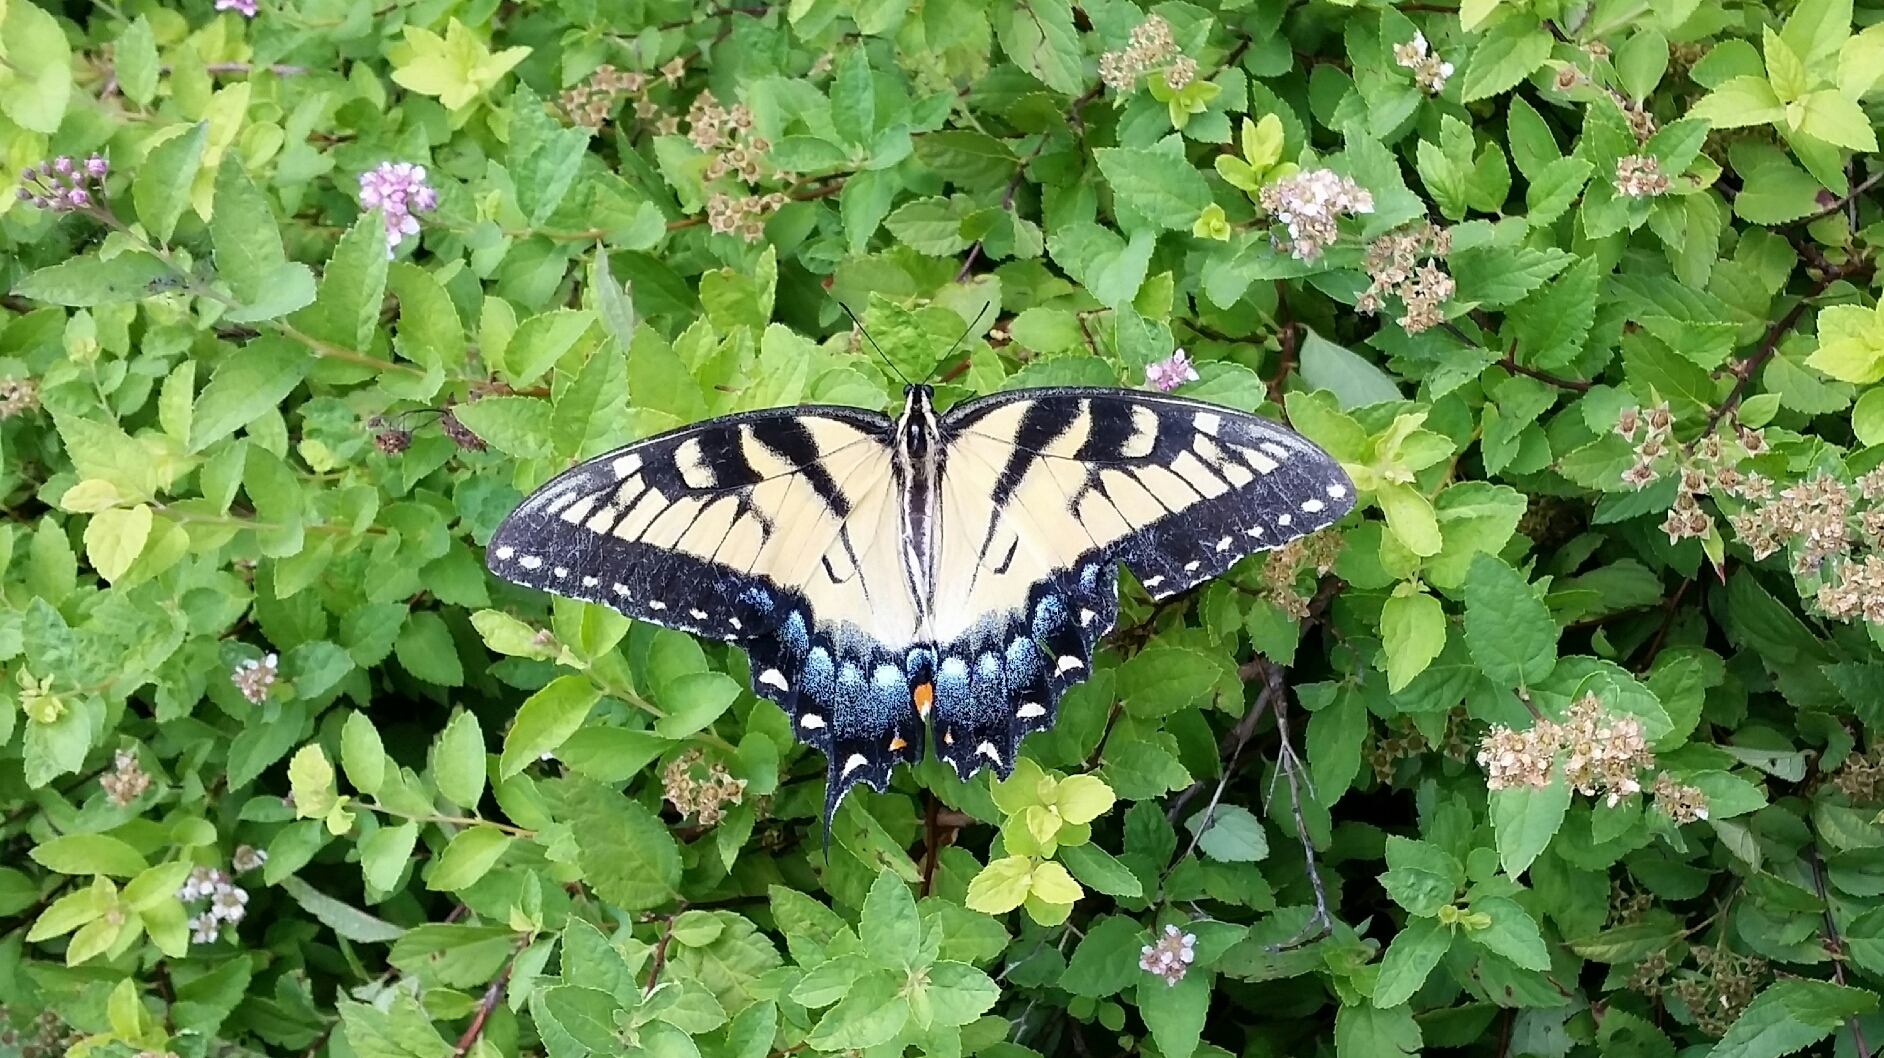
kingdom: Animalia
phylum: Arthropoda
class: Insecta
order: Lepidoptera
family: Papilionidae
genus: Papilio
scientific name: Papilio glaucus
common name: Tiger swallowtail
